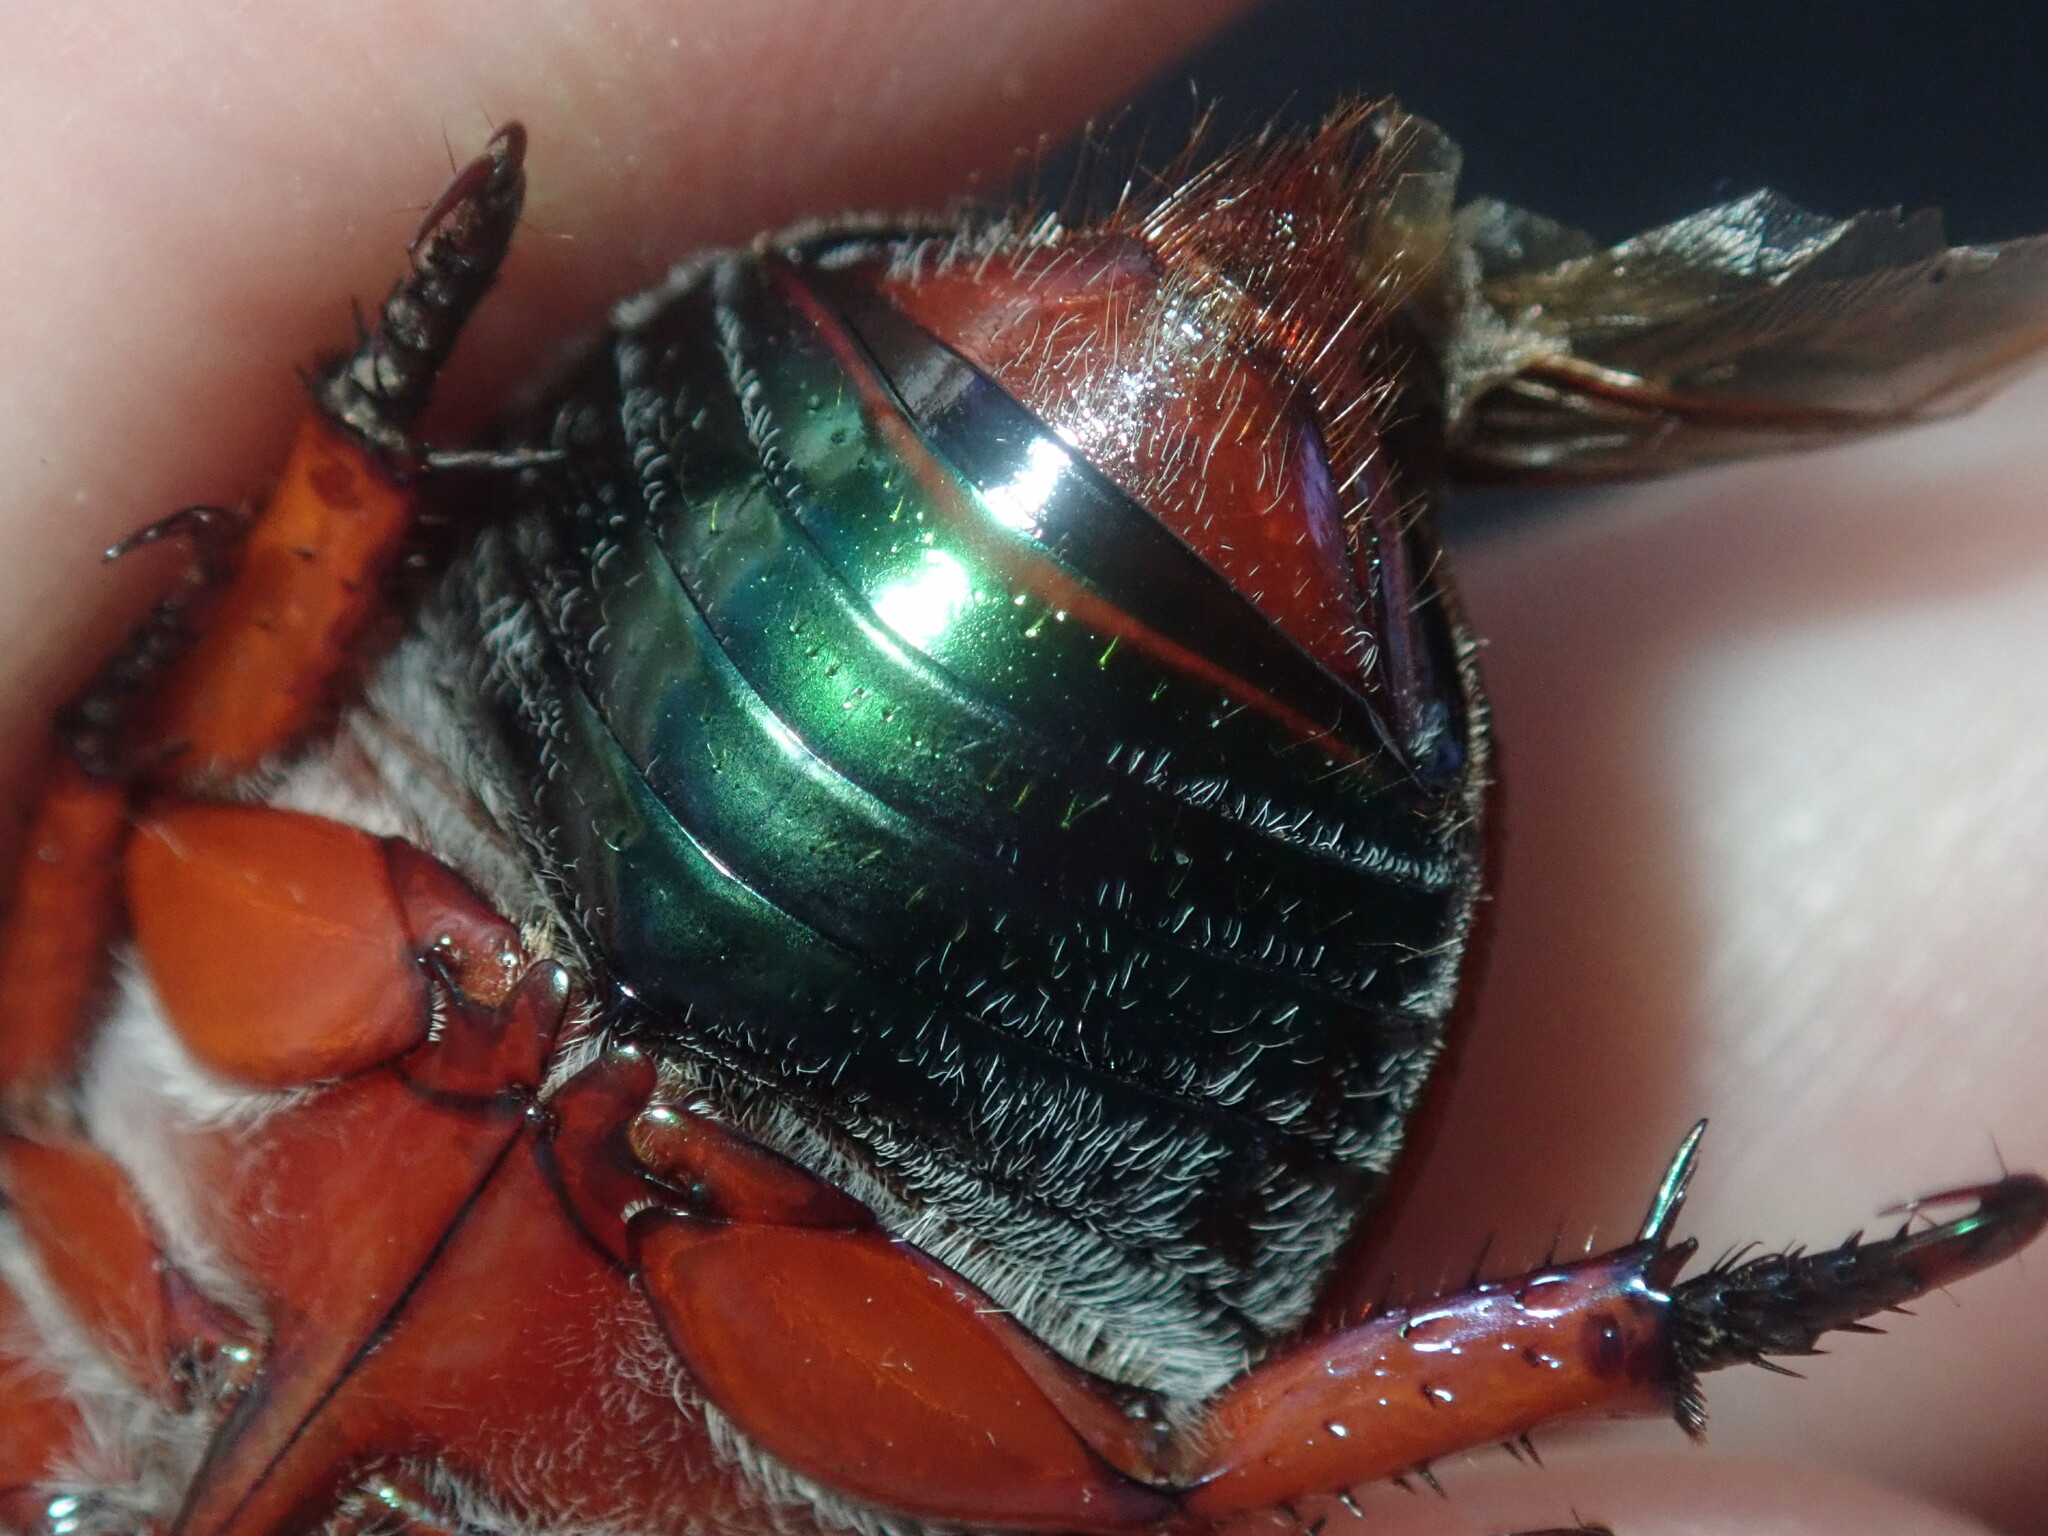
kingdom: Animalia
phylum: Arthropoda
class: Insecta
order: Coleoptera
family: Scarabaeidae
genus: Anoplognathus
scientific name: Anoplognathus olivieri
